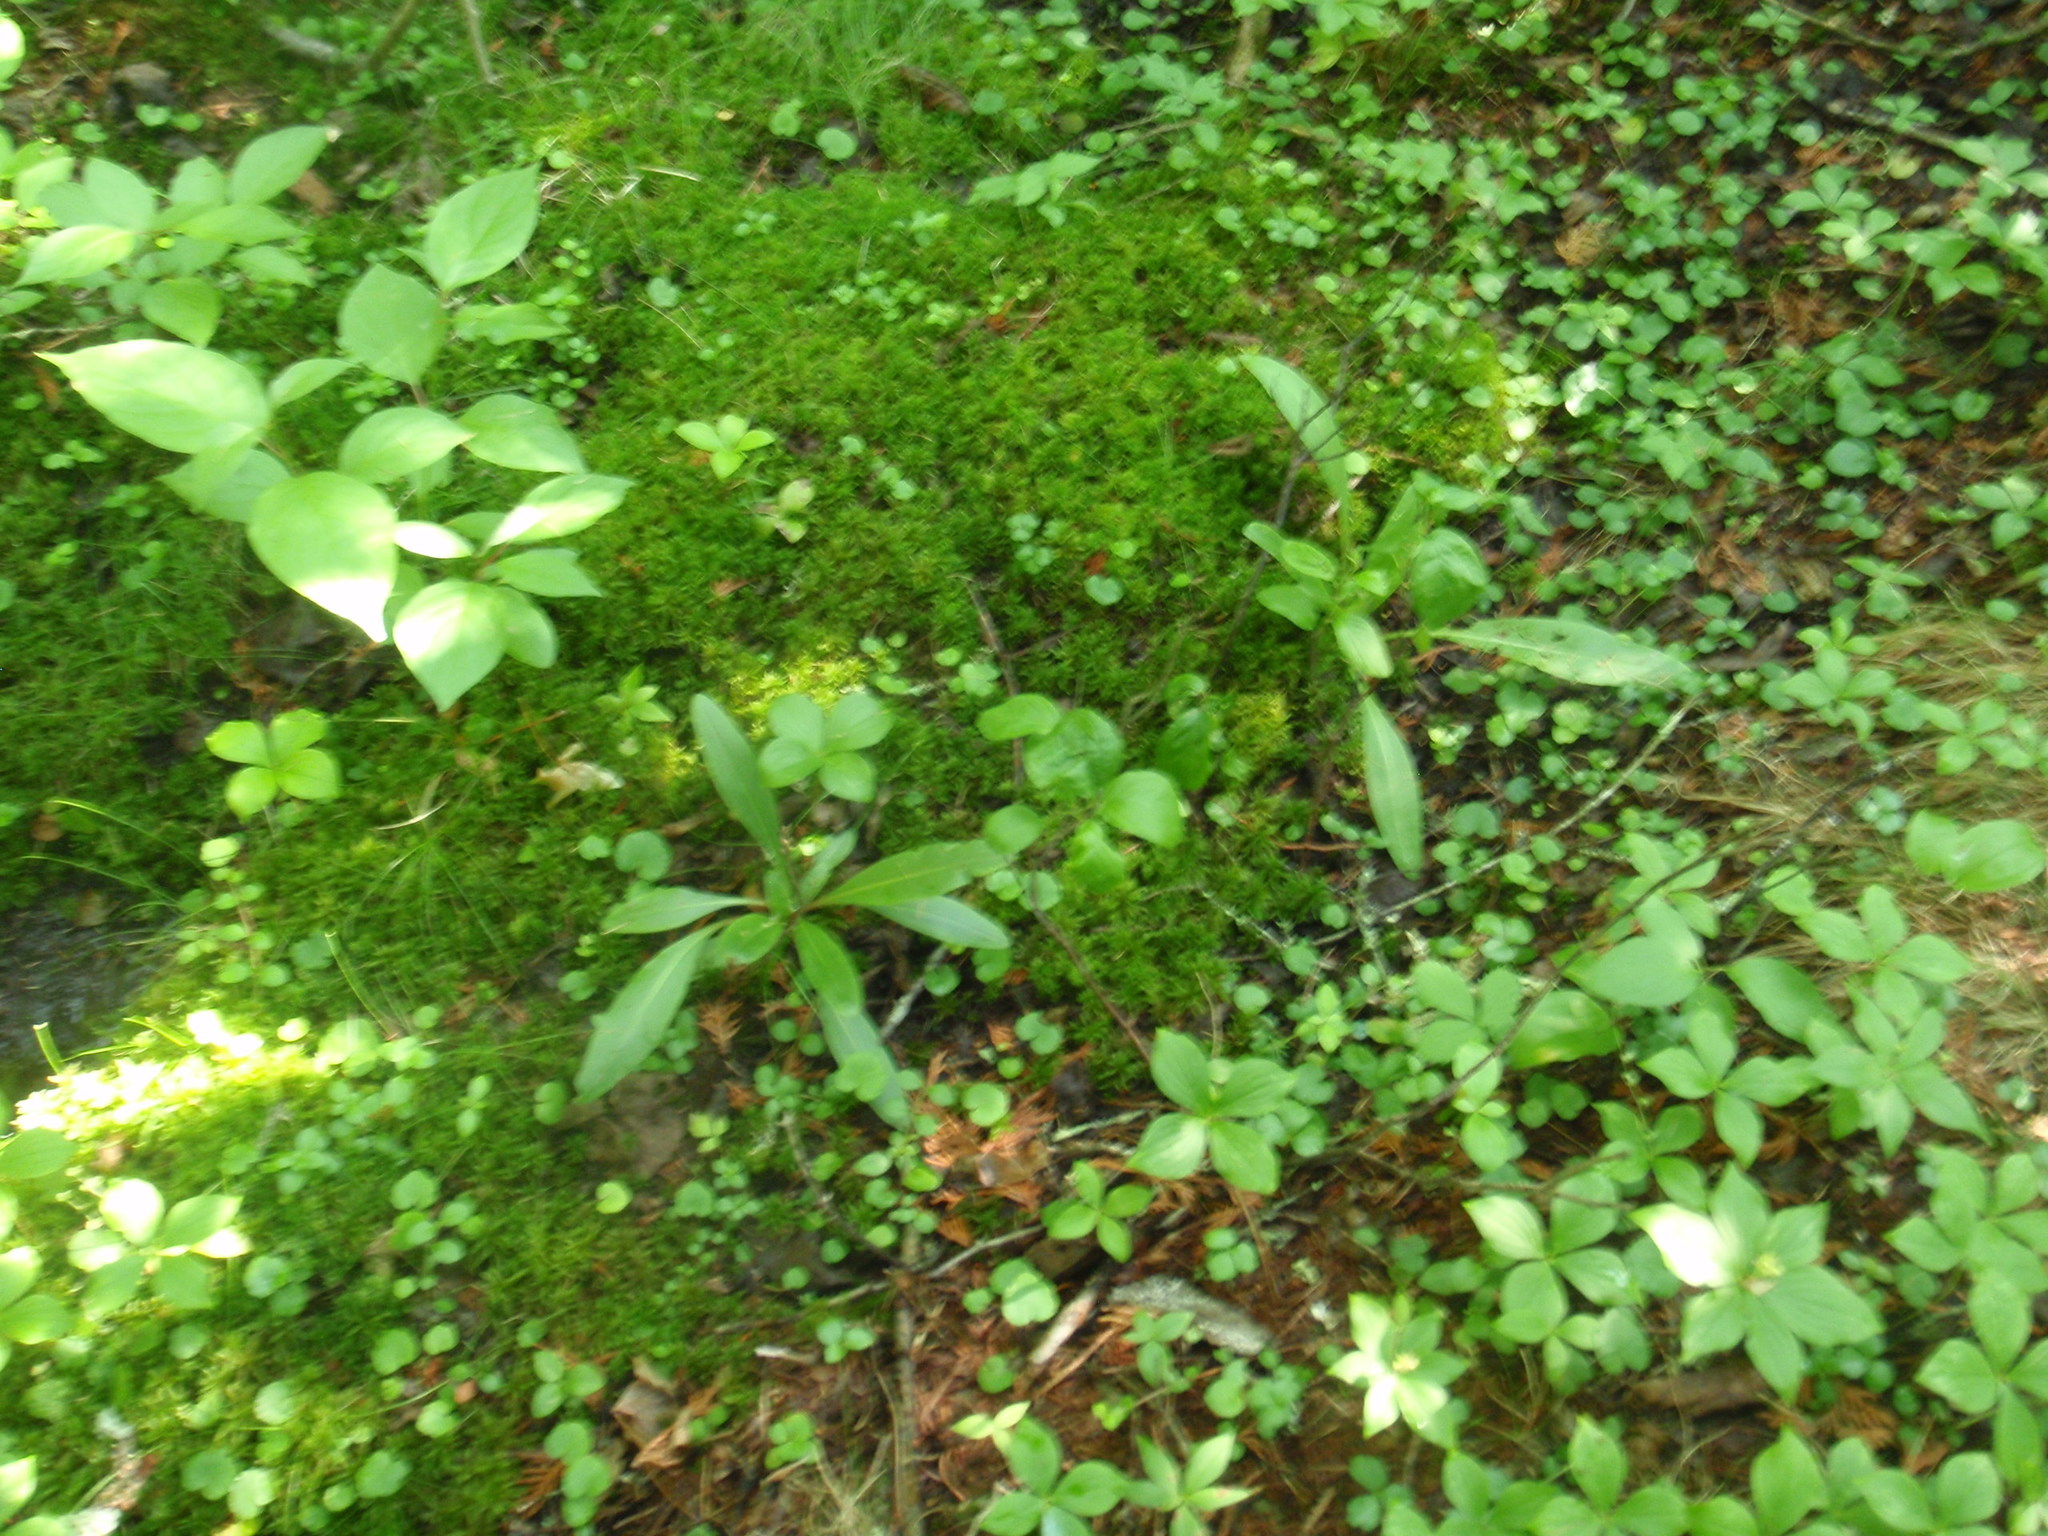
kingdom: Plantae
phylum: Tracheophyta
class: Magnoliopsida
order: Saxifragales
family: Saxifragaceae
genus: Micranthes
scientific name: Micranthes pensylvanica
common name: Marsh saxifrage
